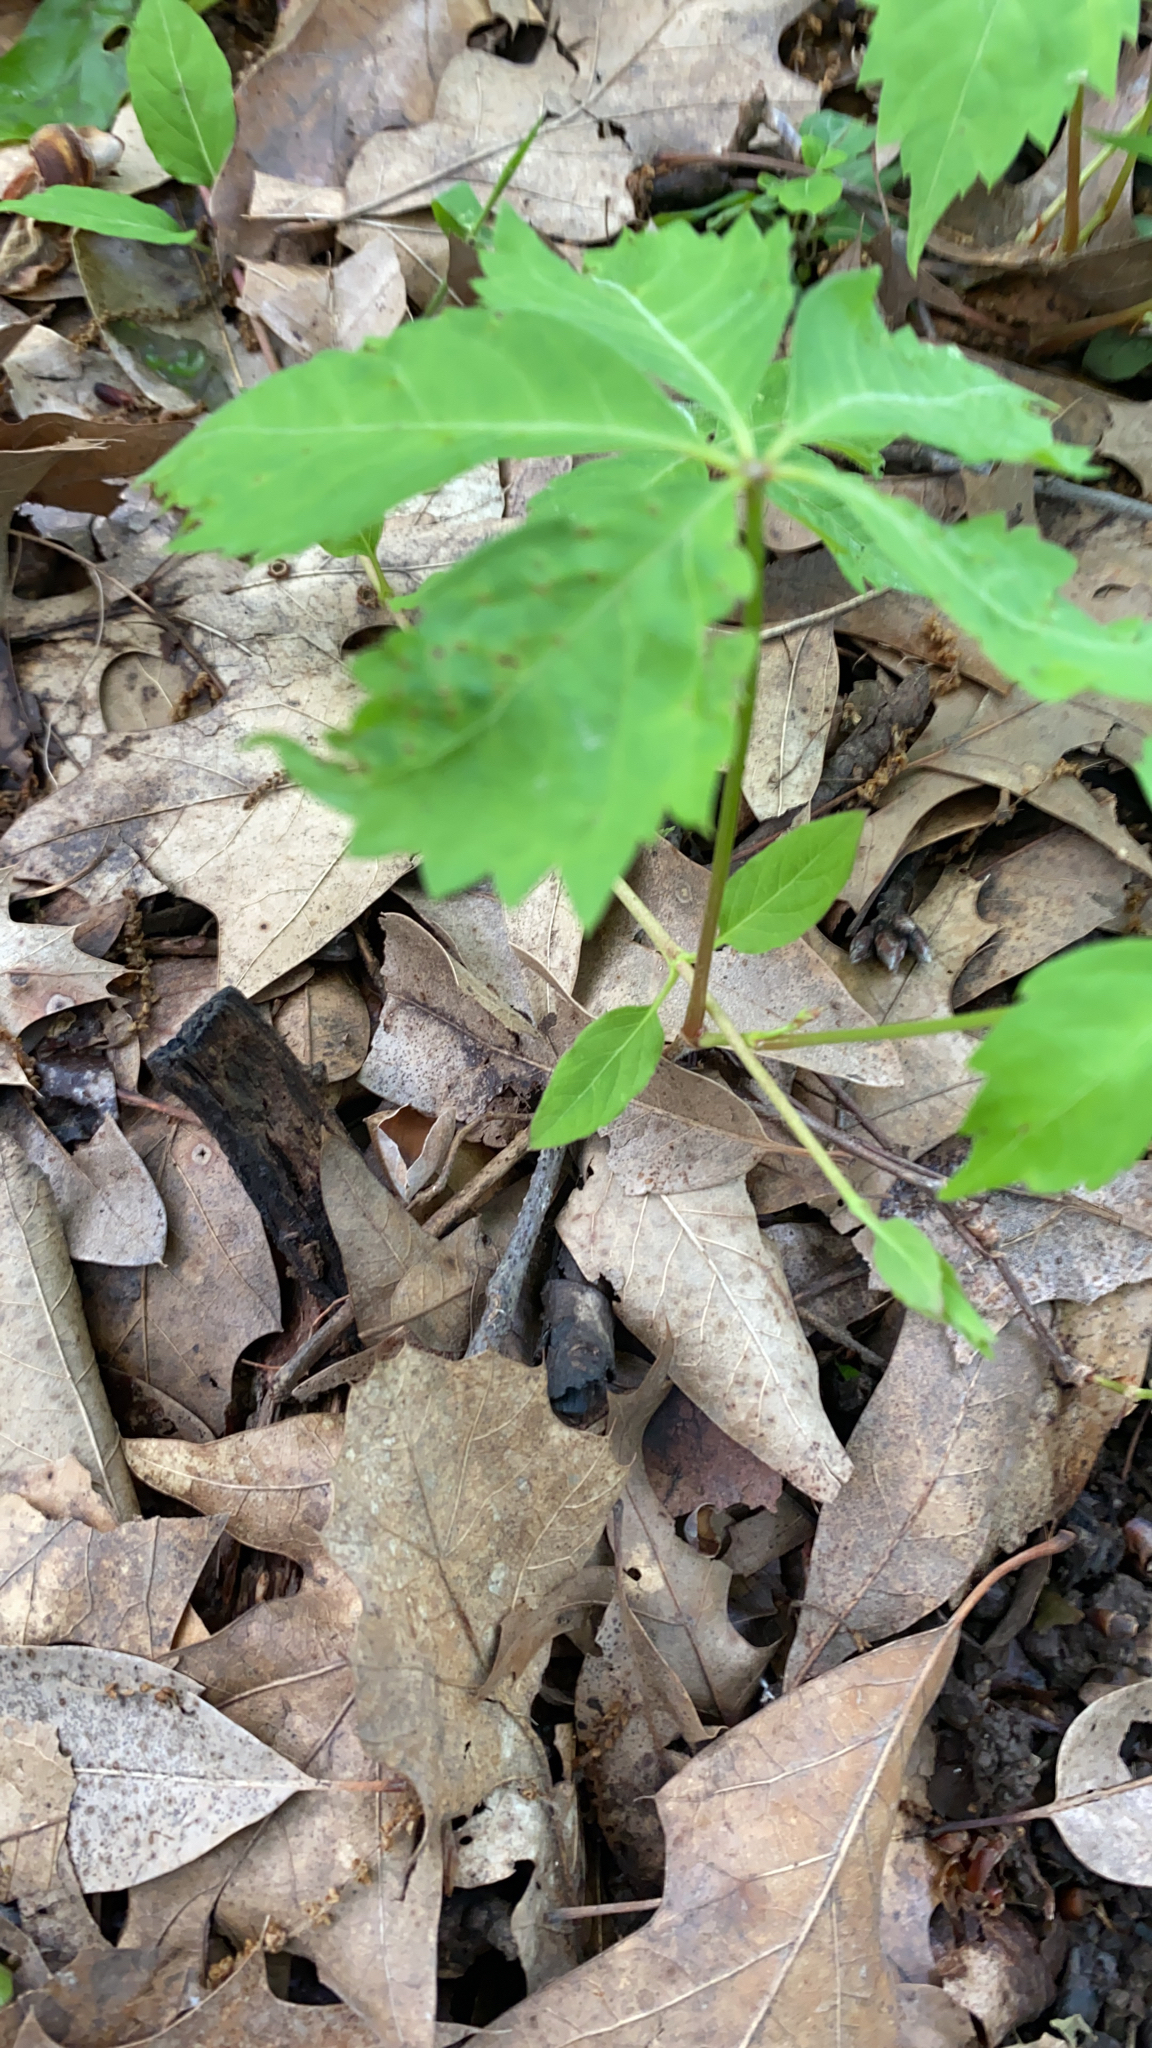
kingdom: Plantae
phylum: Tracheophyta
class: Magnoliopsida
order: Vitales
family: Vitaceae
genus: Parthenocissus
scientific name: Parthenocissus quinquefolia
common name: Virginia-creeper
